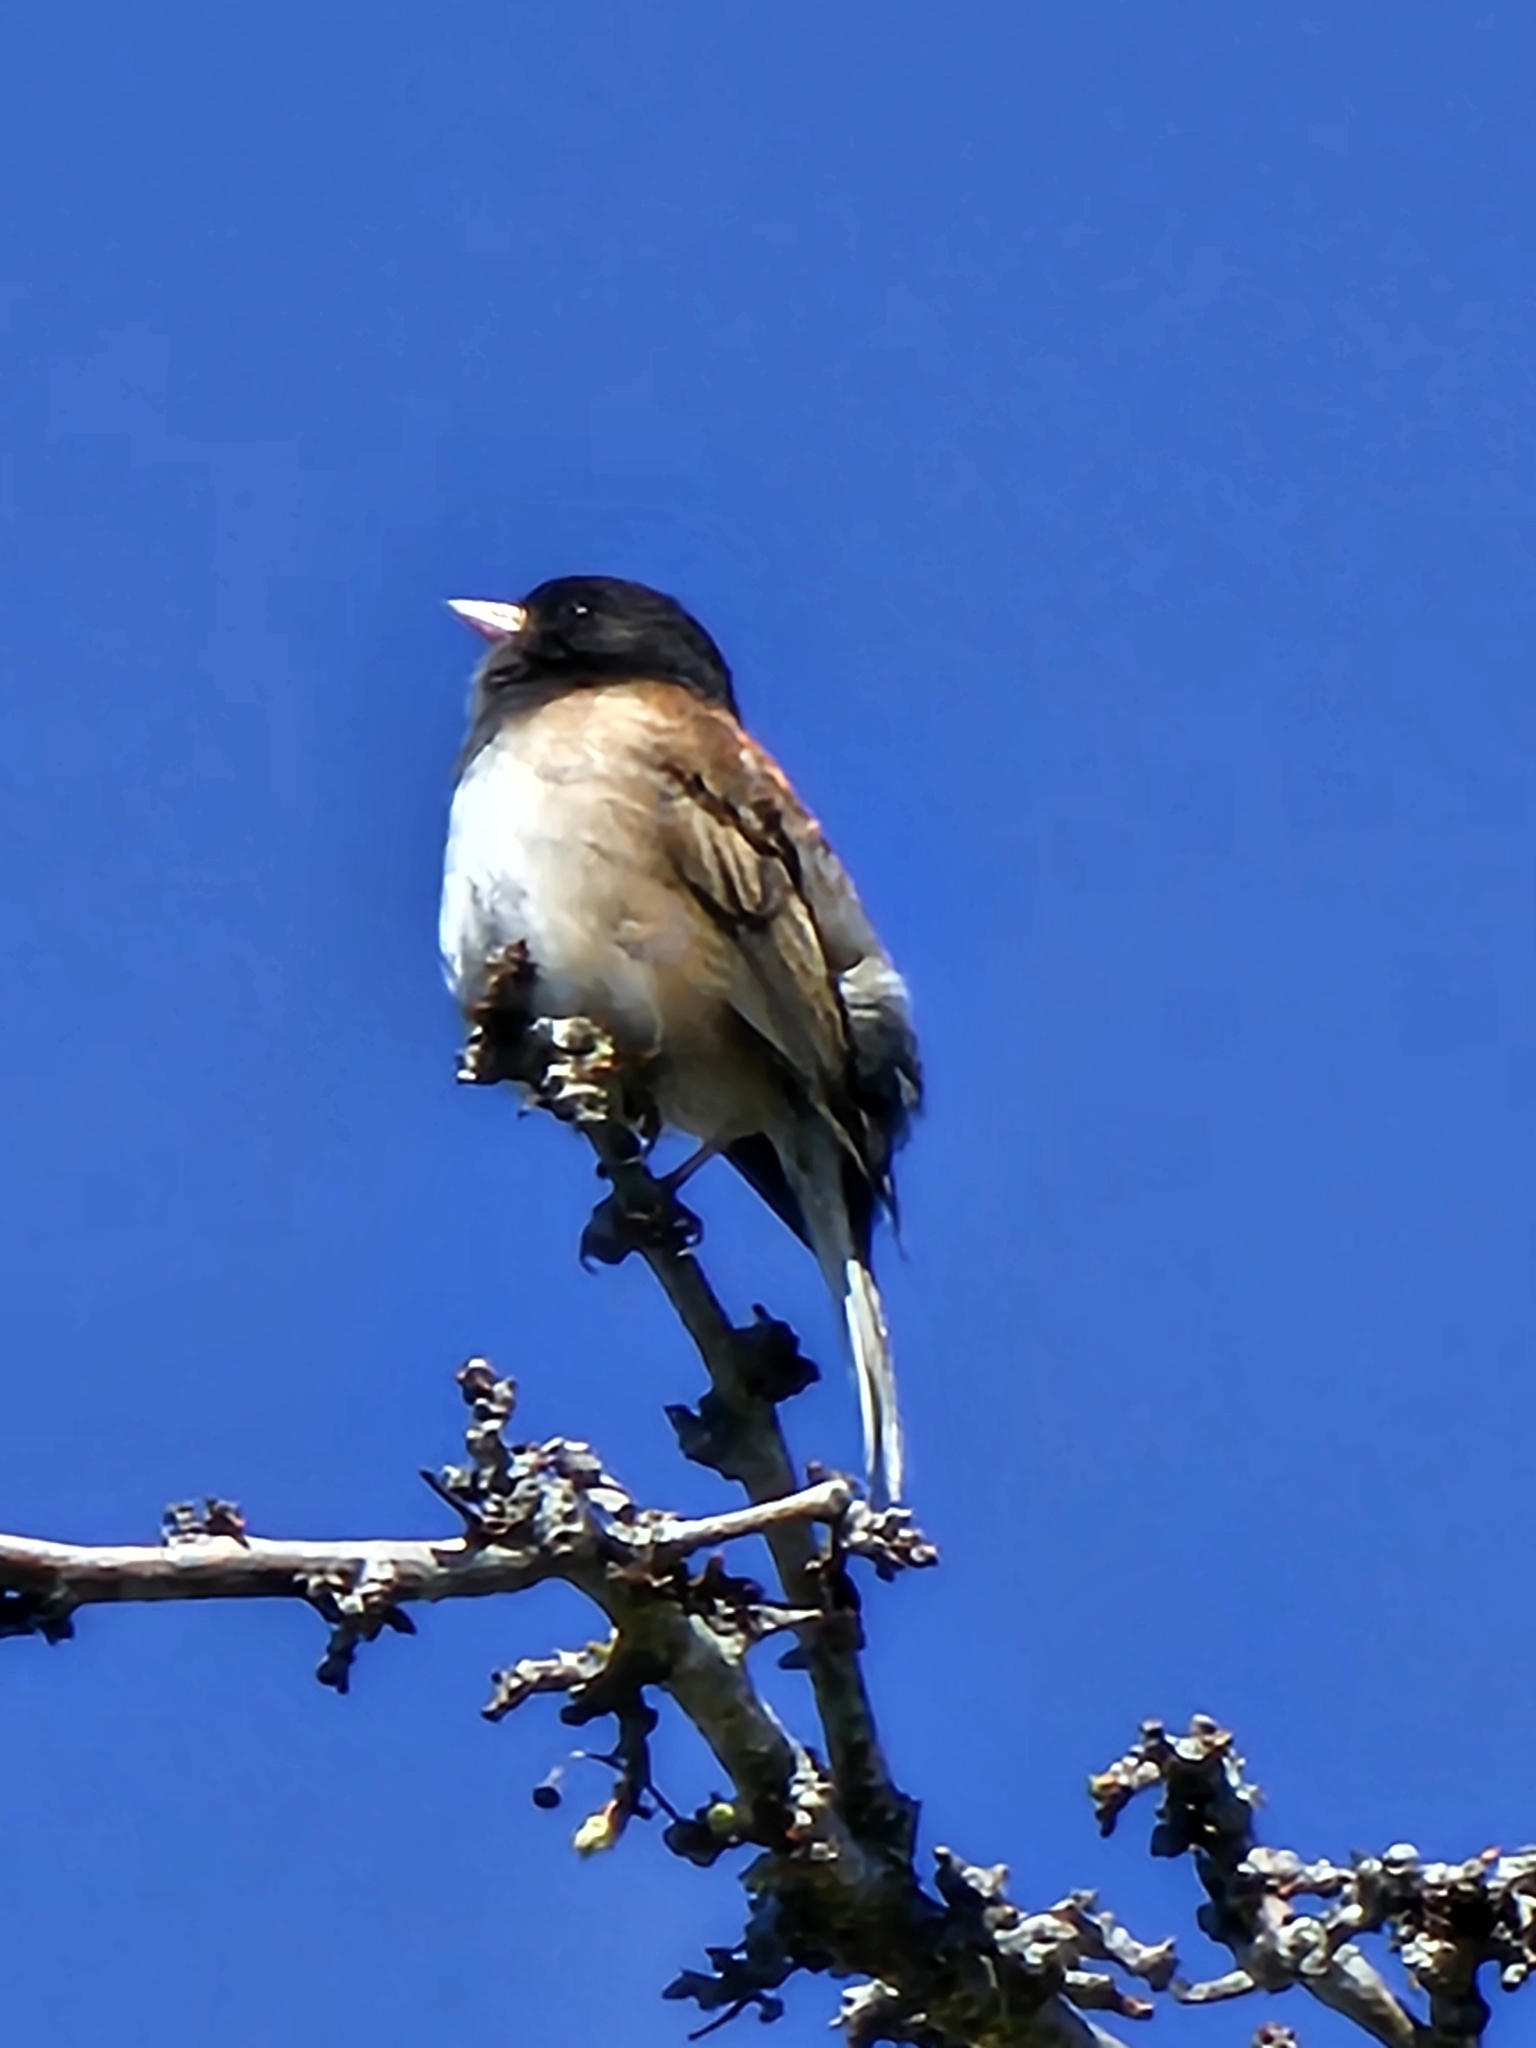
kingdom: Animalia
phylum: Chordata
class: Aves
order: Passeriformes
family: Passerellidae
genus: Junco
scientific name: Junco hyemalis
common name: Dark-eyed junco
